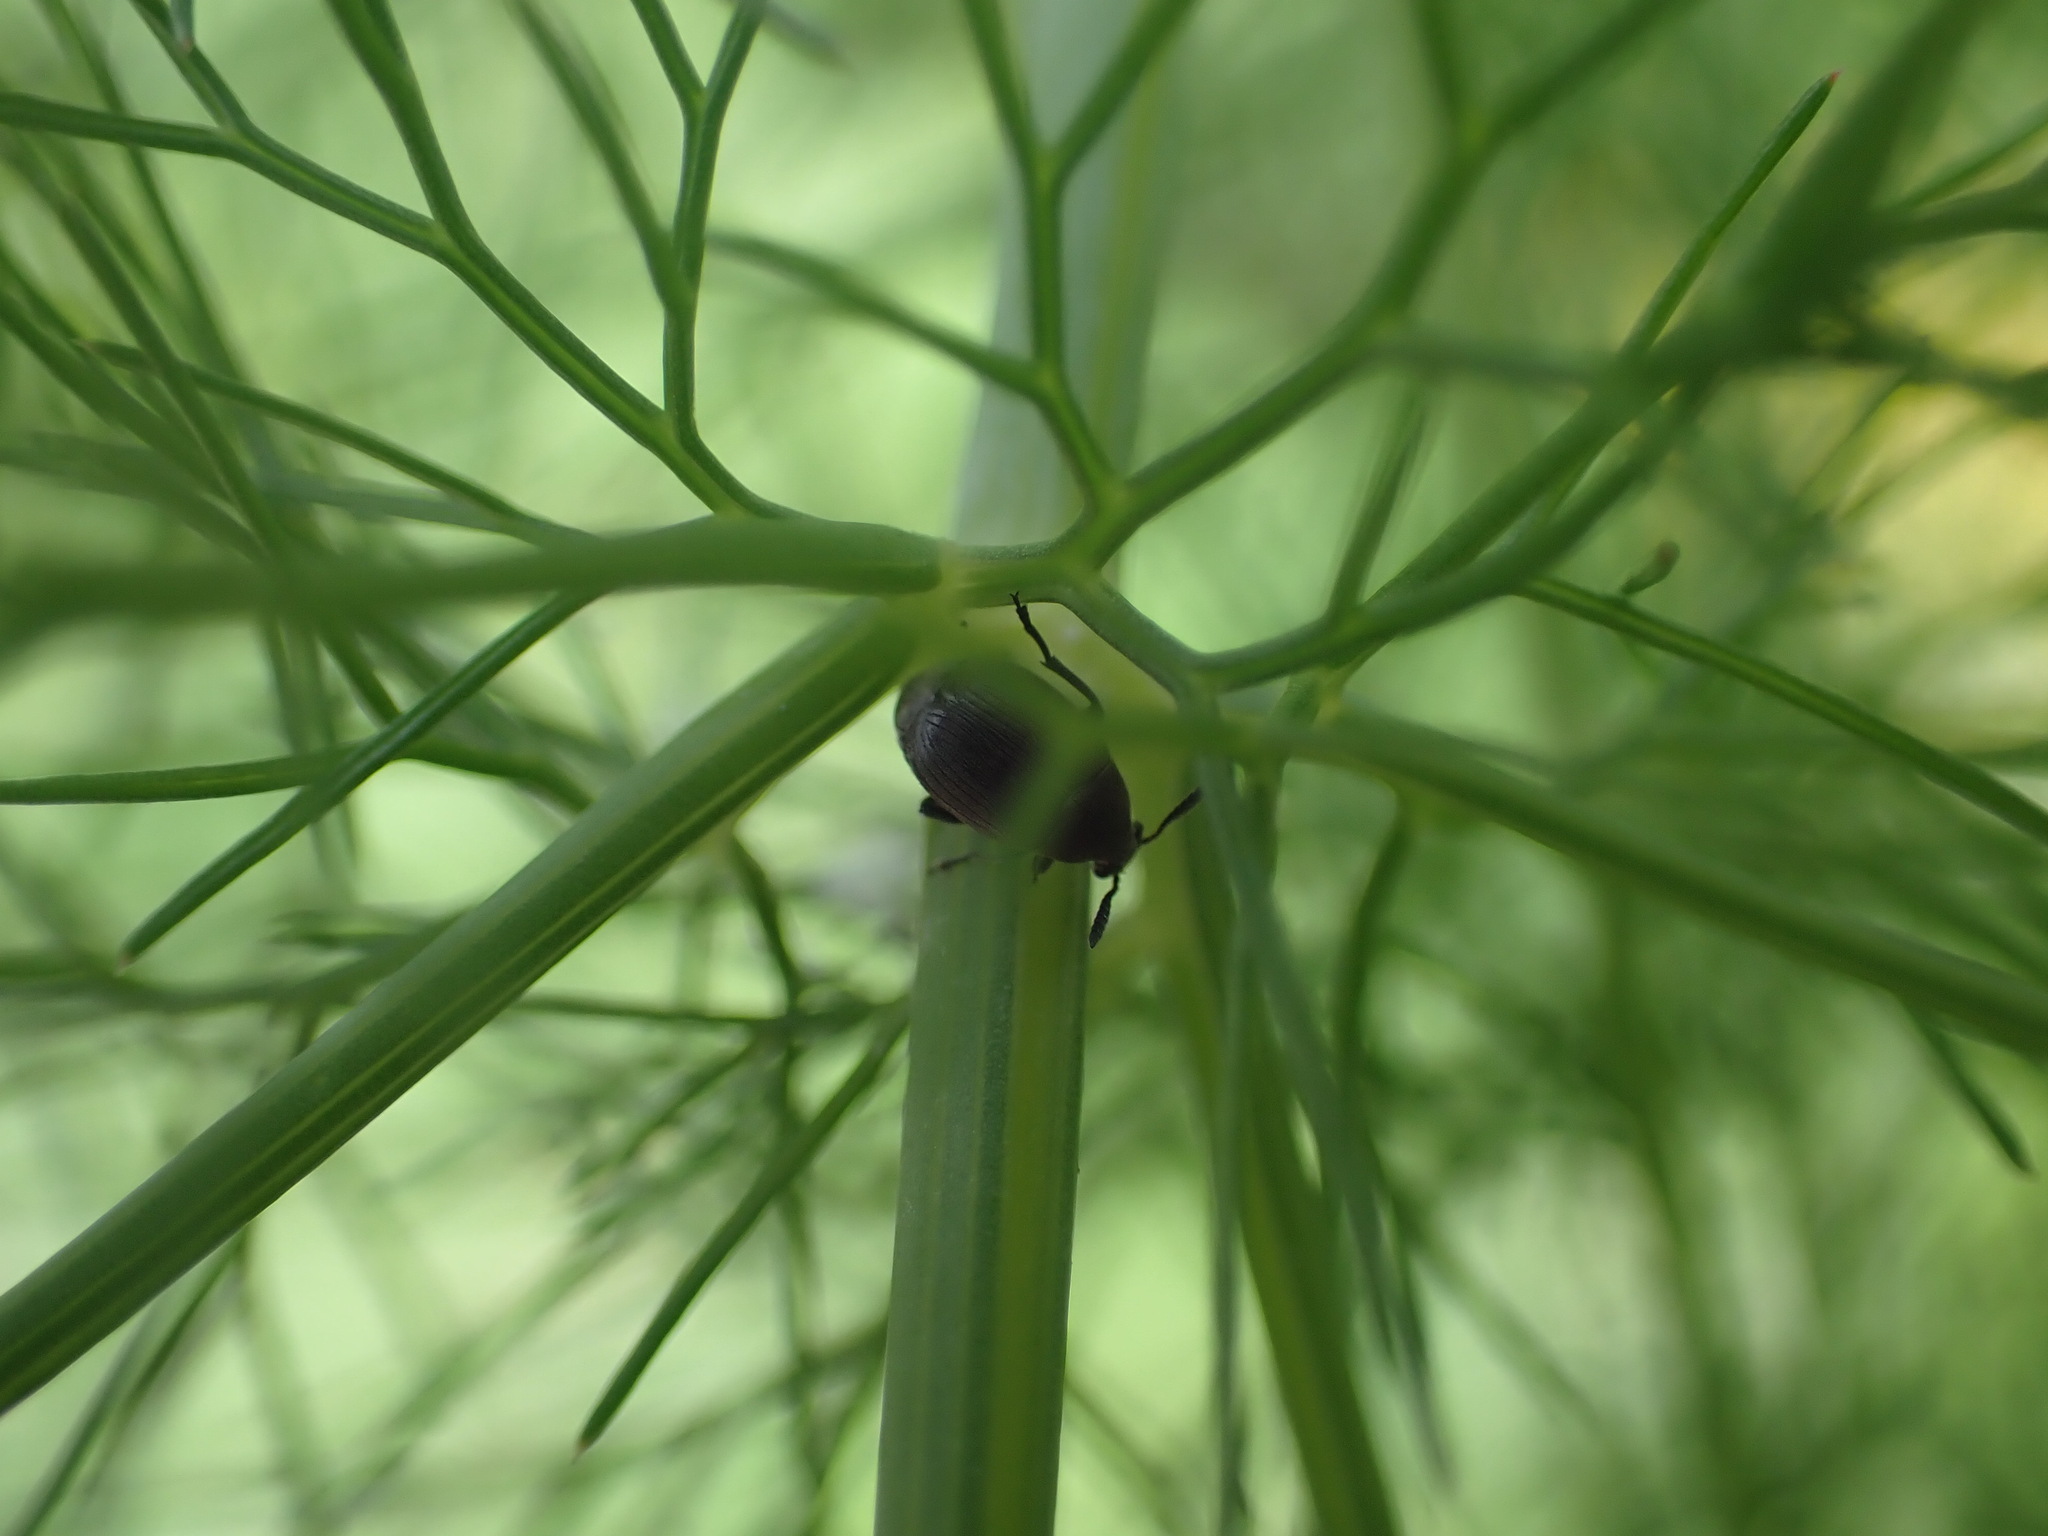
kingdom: Animalia
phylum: Arthropoda
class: Insecta
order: Coleoptera
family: Chrysomelidae
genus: Bruchidius
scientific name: Bruchidius villosus
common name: Scotch broom bruchid
